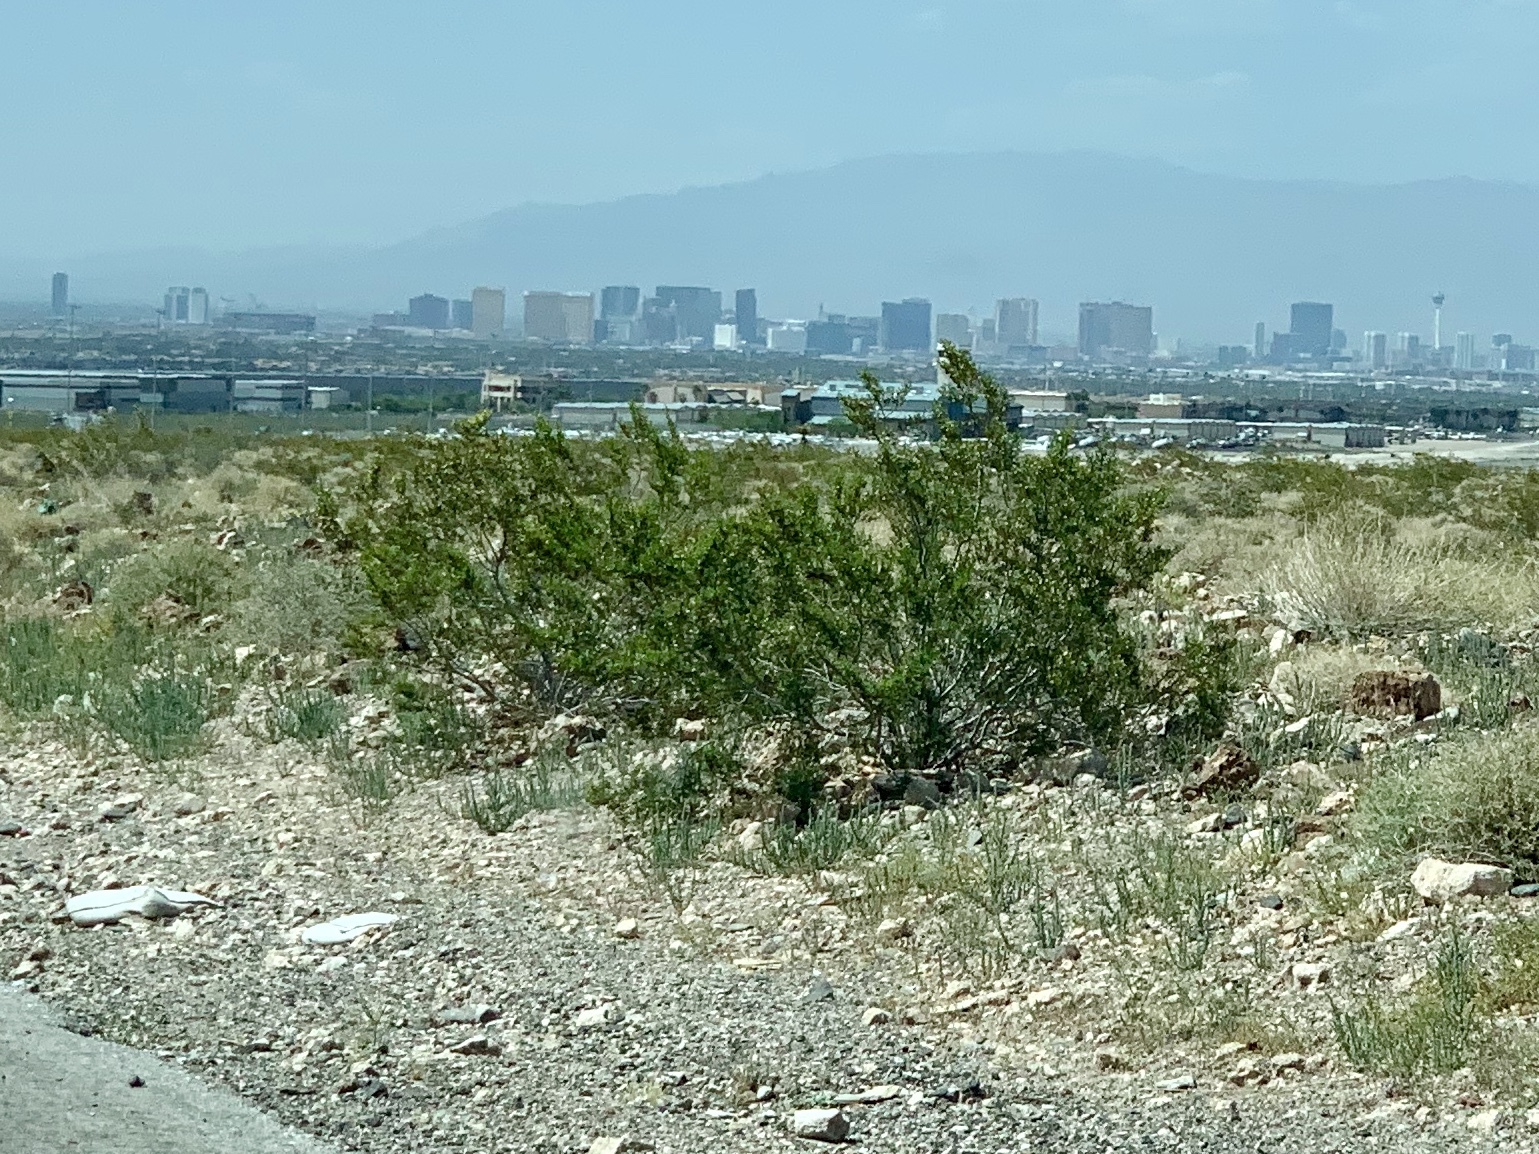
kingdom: Plantae
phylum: Tracheophyta
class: Magnoliopsida
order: Zygophyllales
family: Zygophyllaceae
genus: Larrea
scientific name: Larrea tridentata
